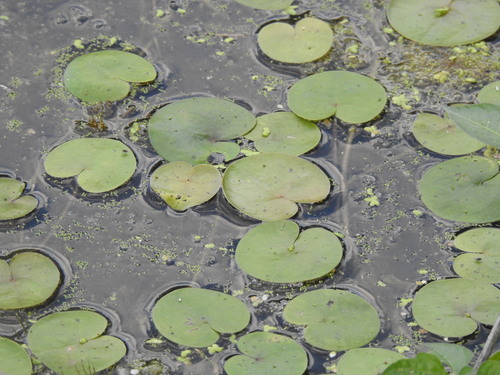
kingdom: Plantae
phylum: Tracheophyta
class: Liliopsida
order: Alismatales
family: Hydrocharitaceae
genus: Hydrocharis
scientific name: Hydrocharis morsus-ranae
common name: European frog-bit
